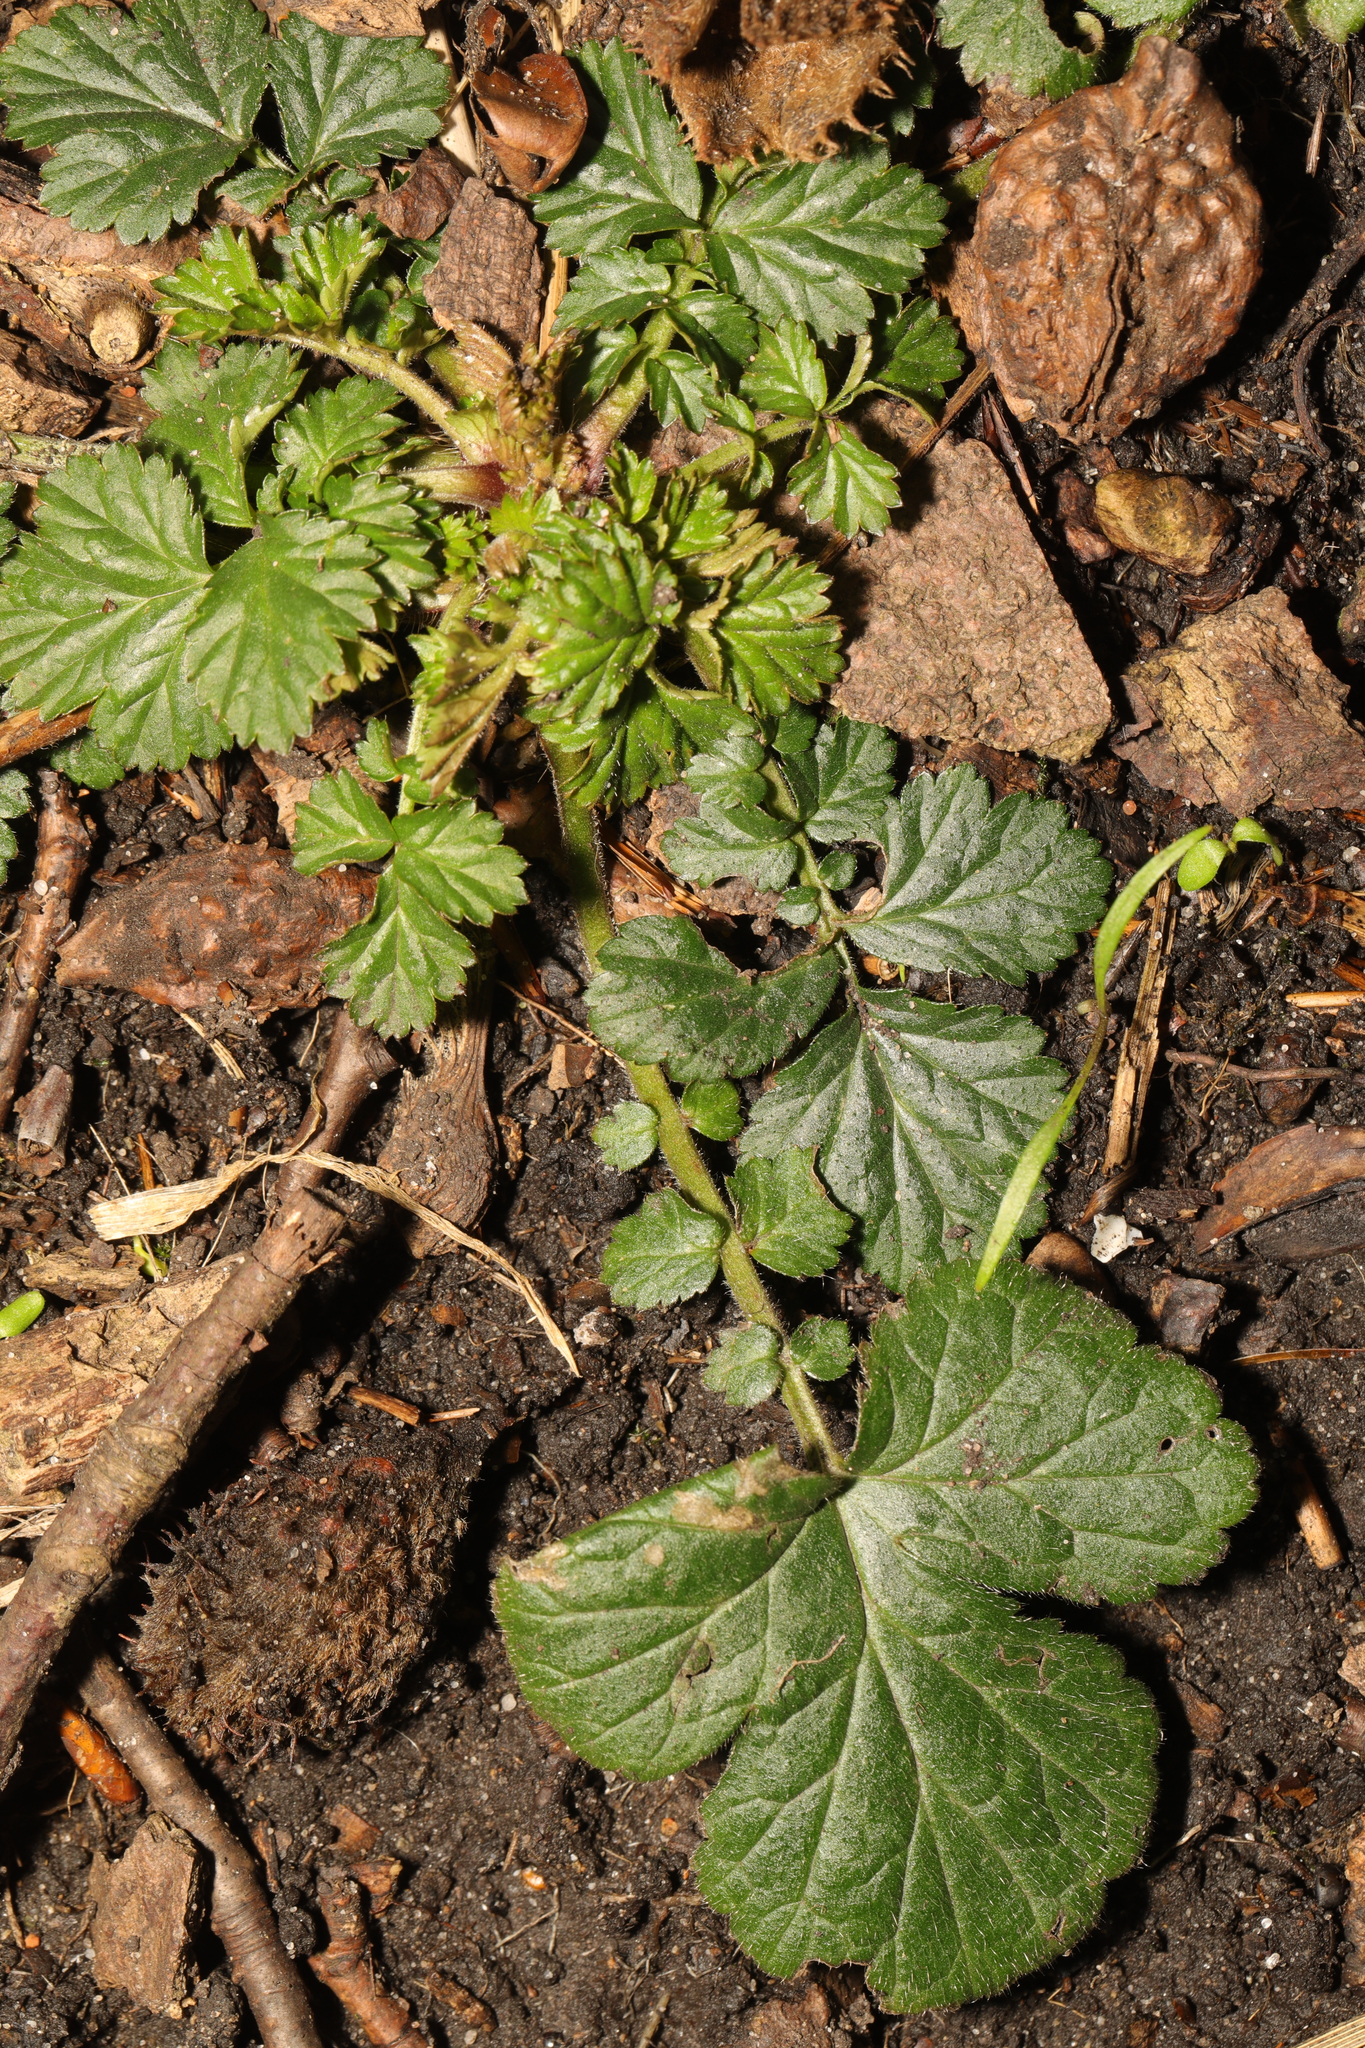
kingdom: Plantae
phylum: Tracheophyta
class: Magnoliopsida
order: Rosales
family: Rosaceae
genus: Geum
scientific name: Geum urbanum
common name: Wood avens
